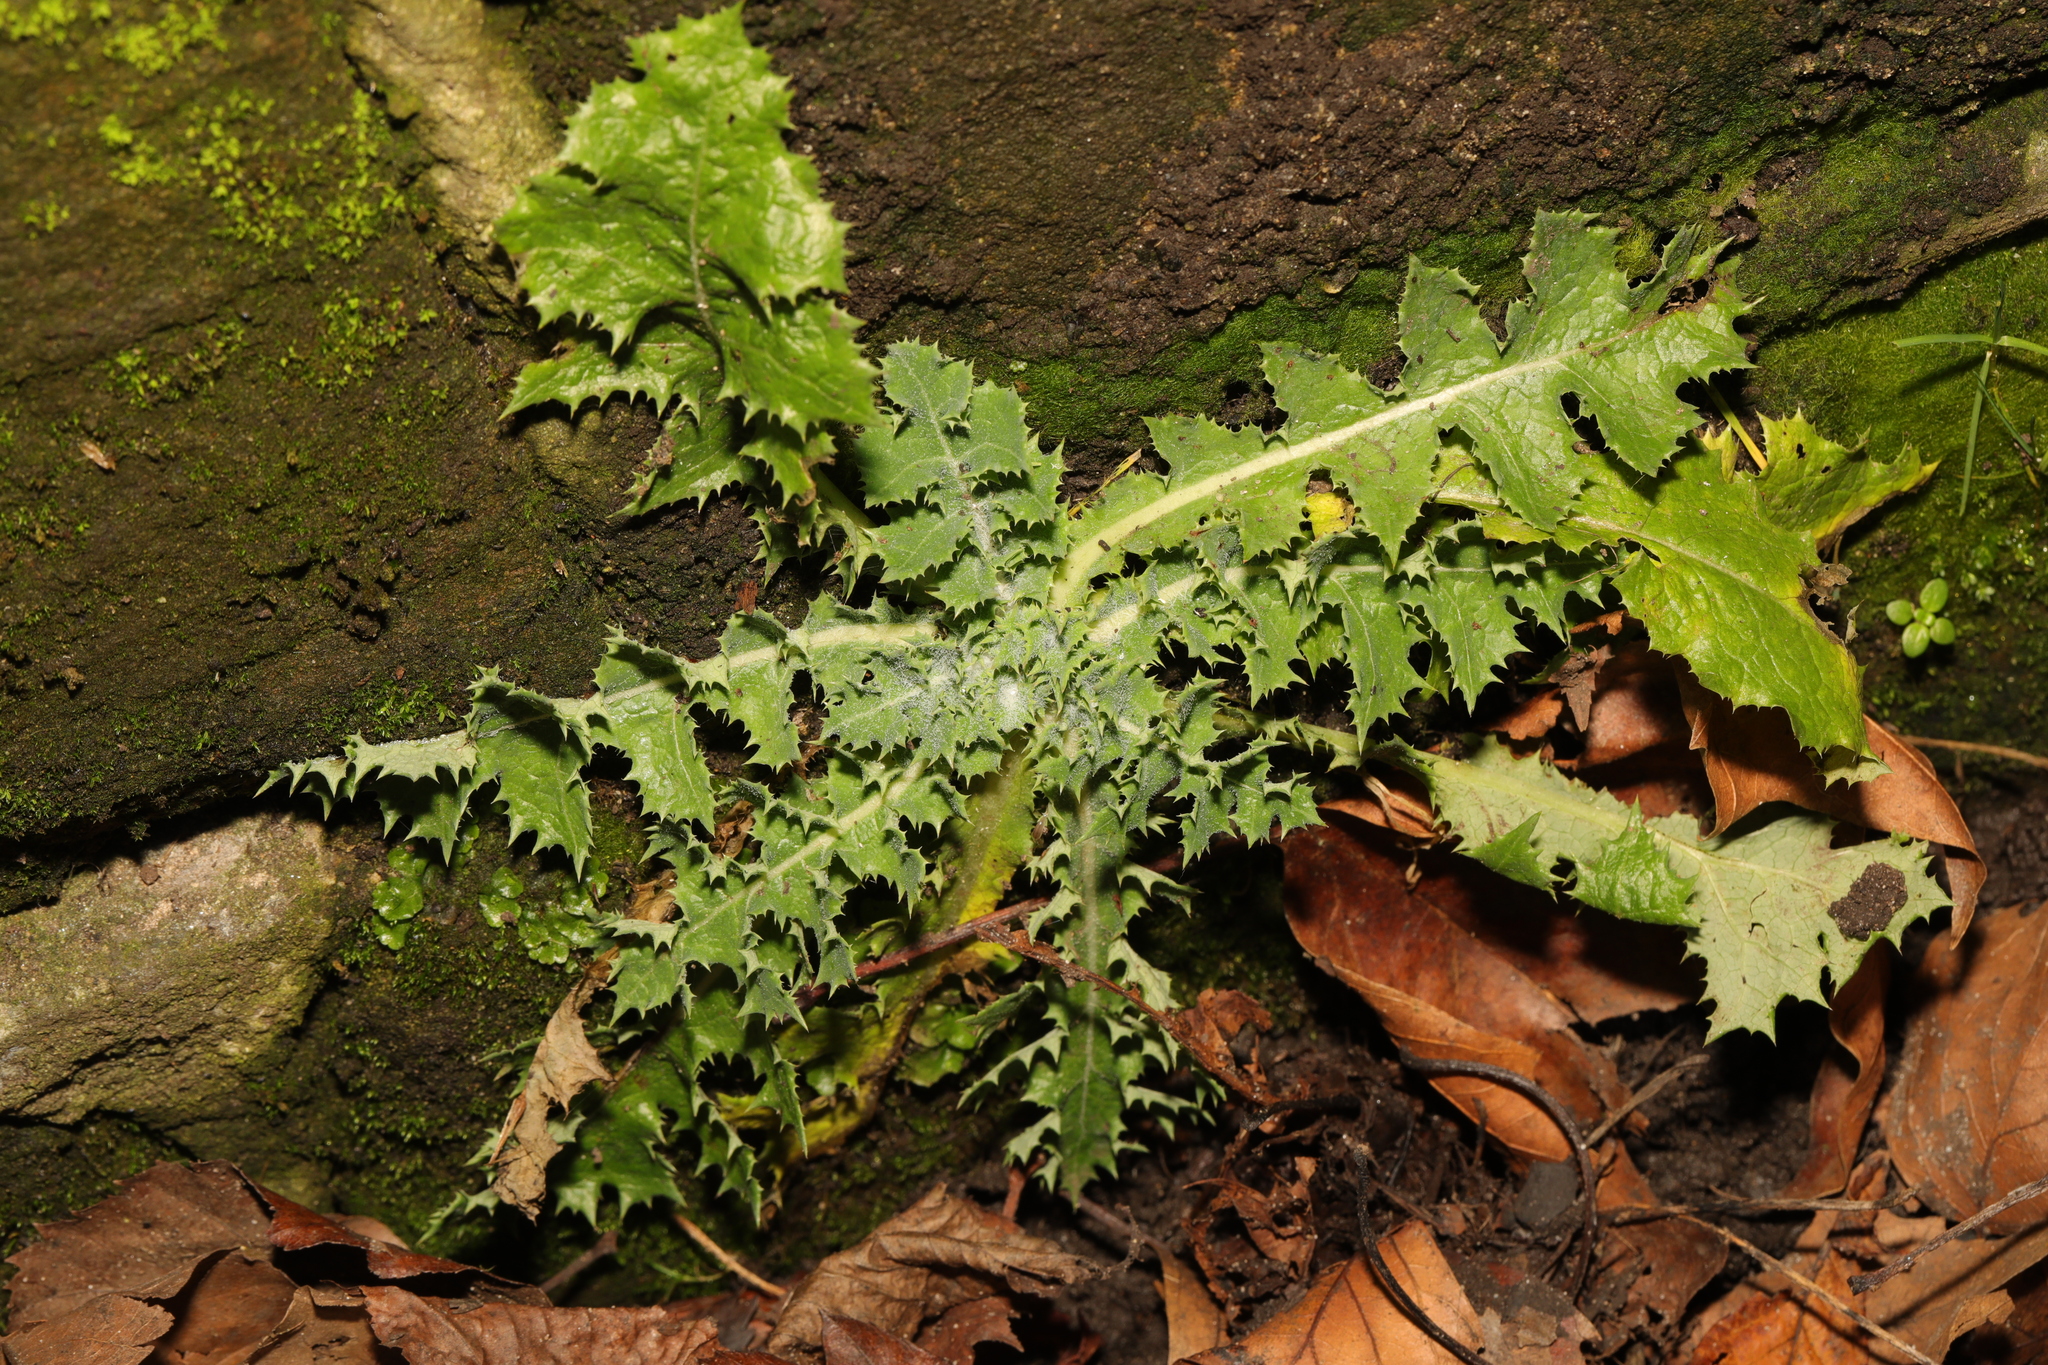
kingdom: Plantae
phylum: Tracheophyta
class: Magnoliopsida
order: Asterales
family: Asteraceae
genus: Sonchus
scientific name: Sonchus asper
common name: Prickly sow-thistle
